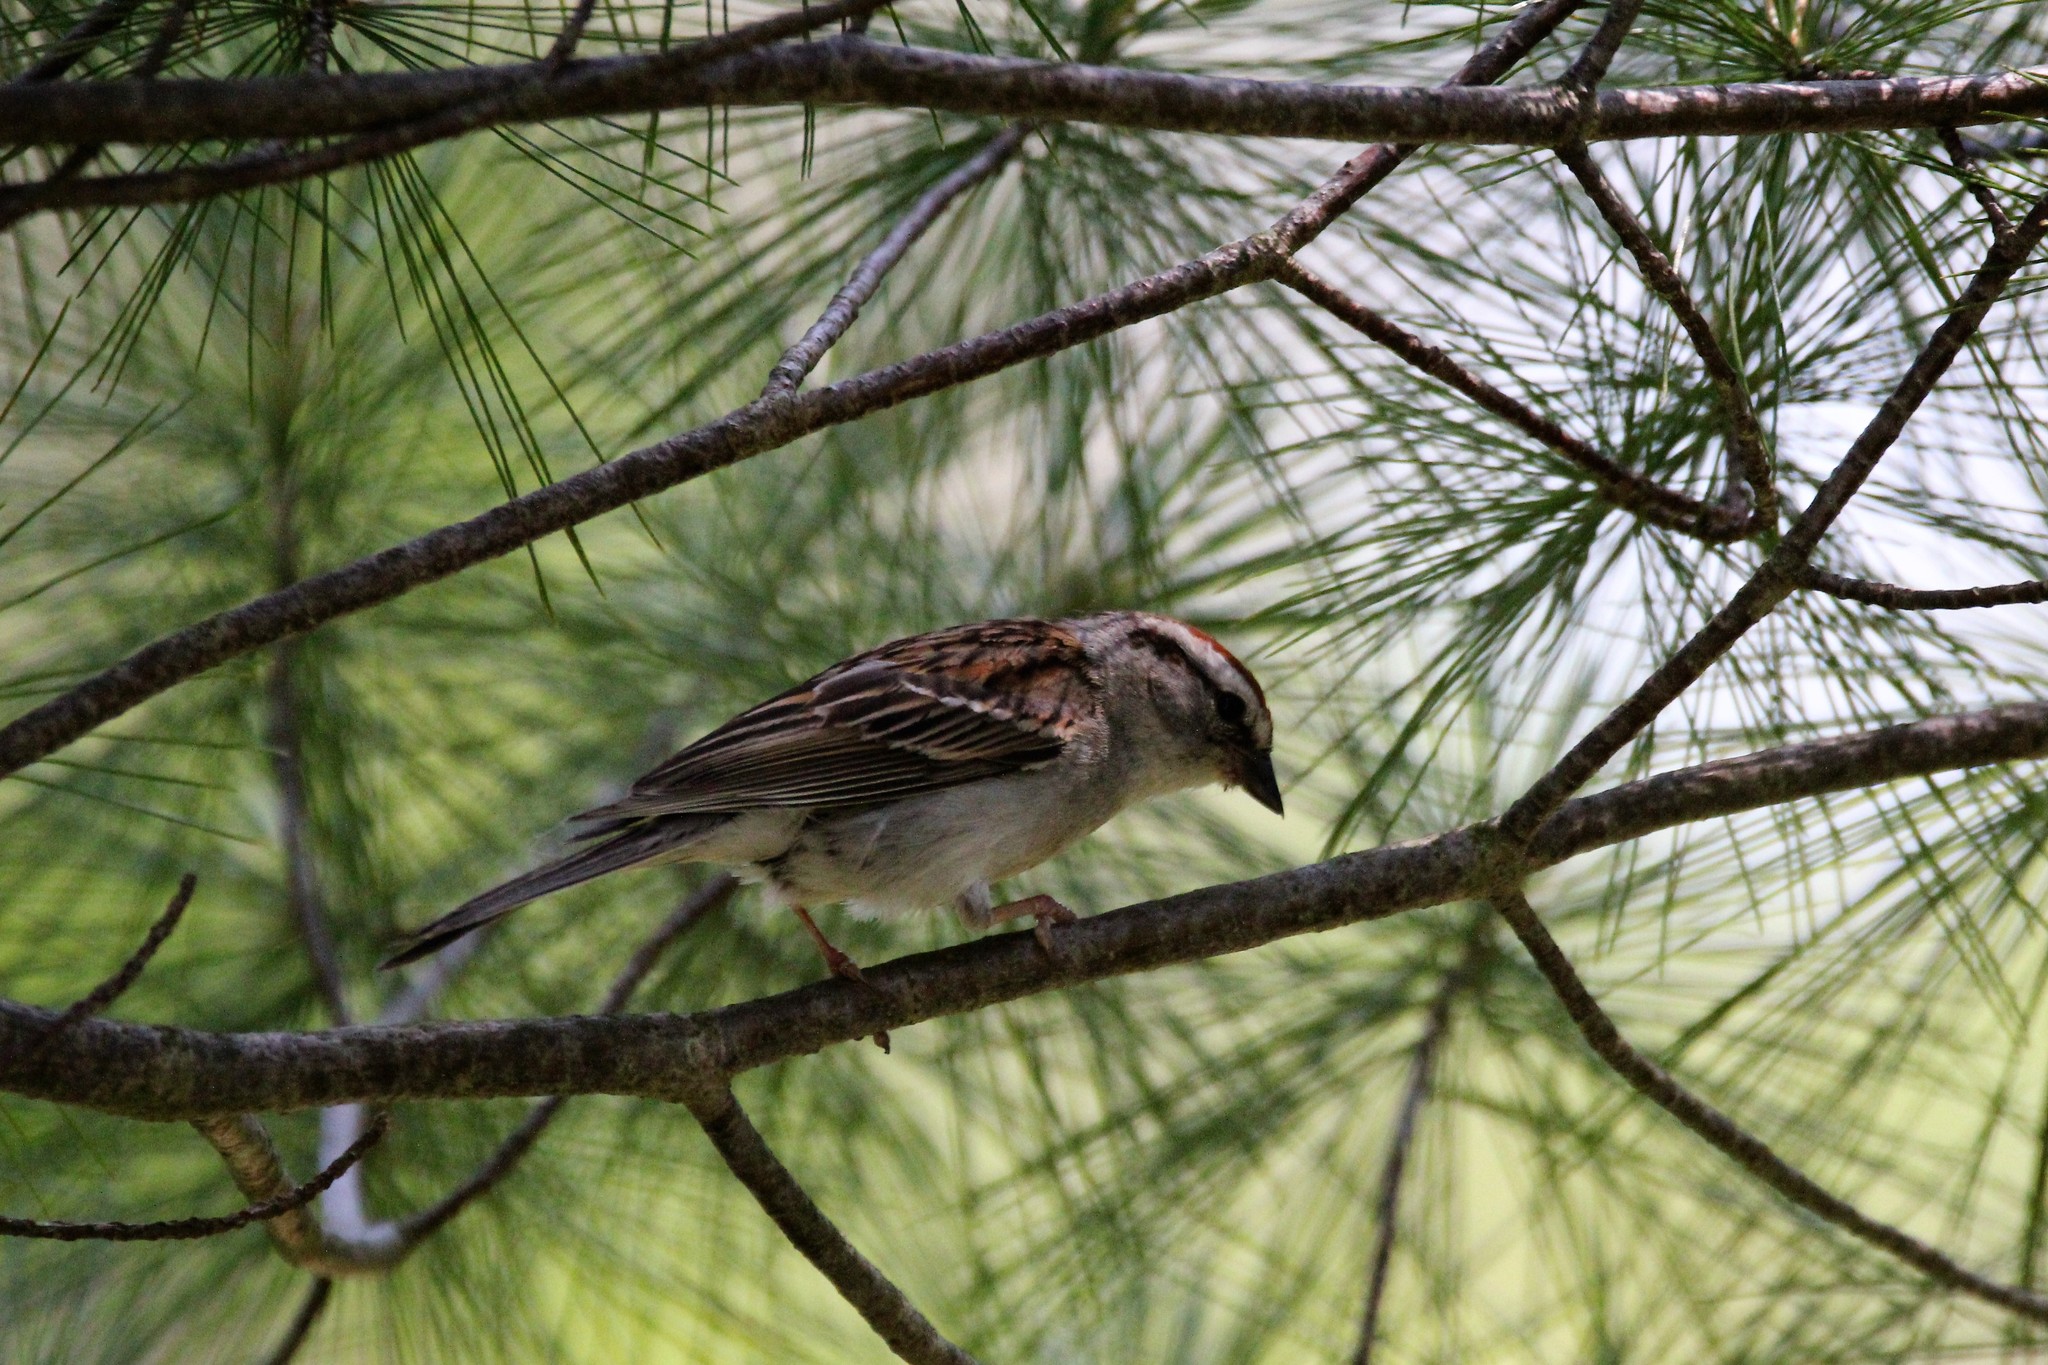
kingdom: Animalia
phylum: Chordata
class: Aves
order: Passeriformes
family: Passerellidae
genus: Spizella
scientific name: Spizella passerina
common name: Chipping sparrow
